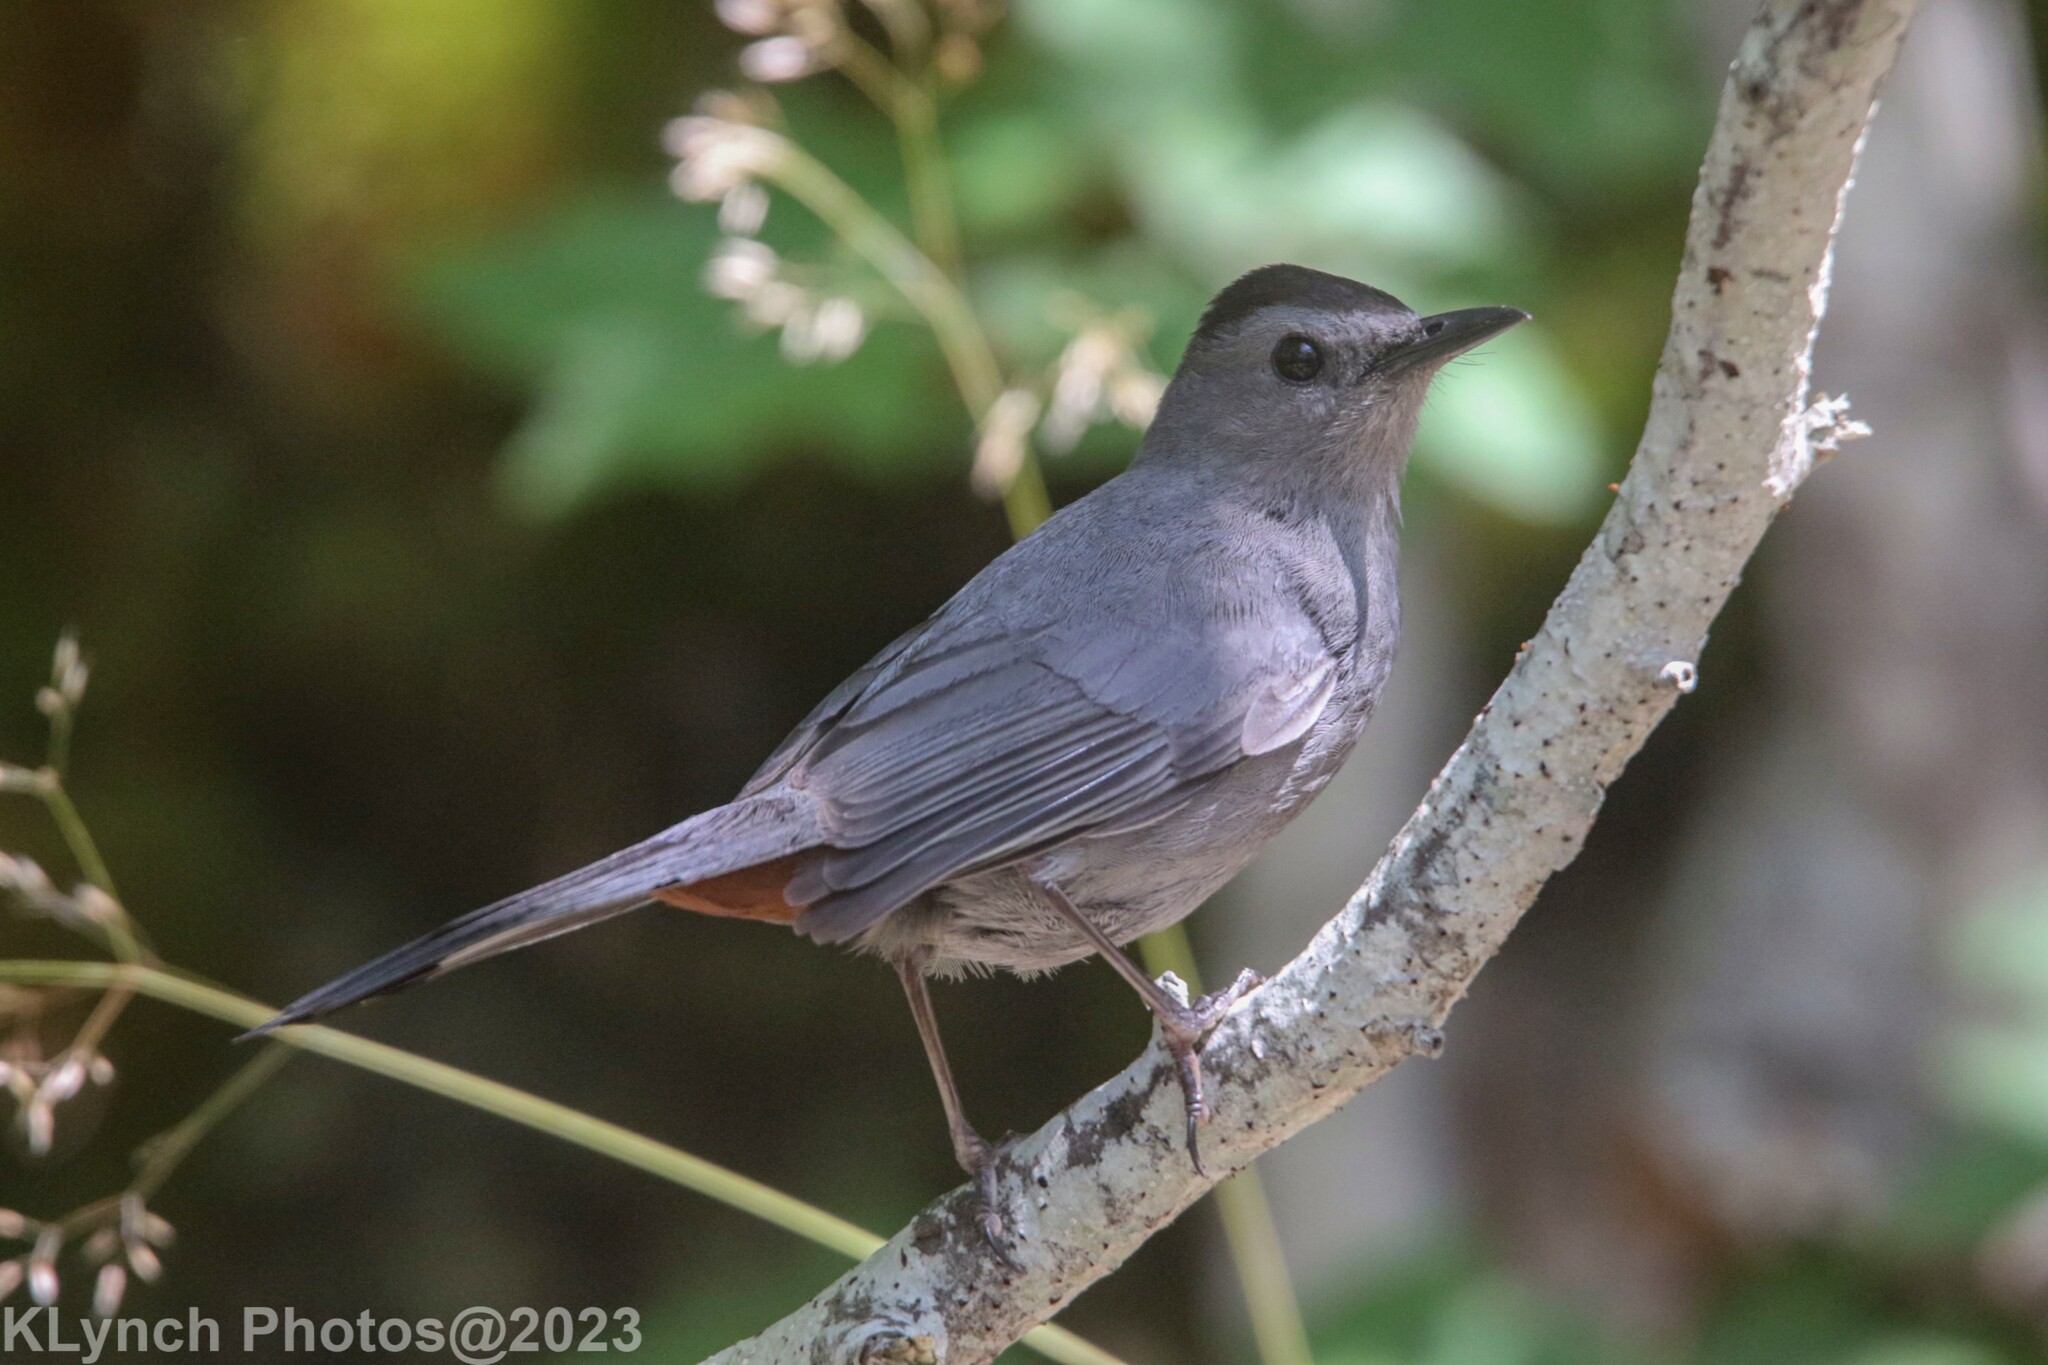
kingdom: Animalia
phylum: Chordata
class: Aves
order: Passeriformes
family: Mimidae
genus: Dumetella
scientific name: Dumetella carolinensis
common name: Gray catbird
